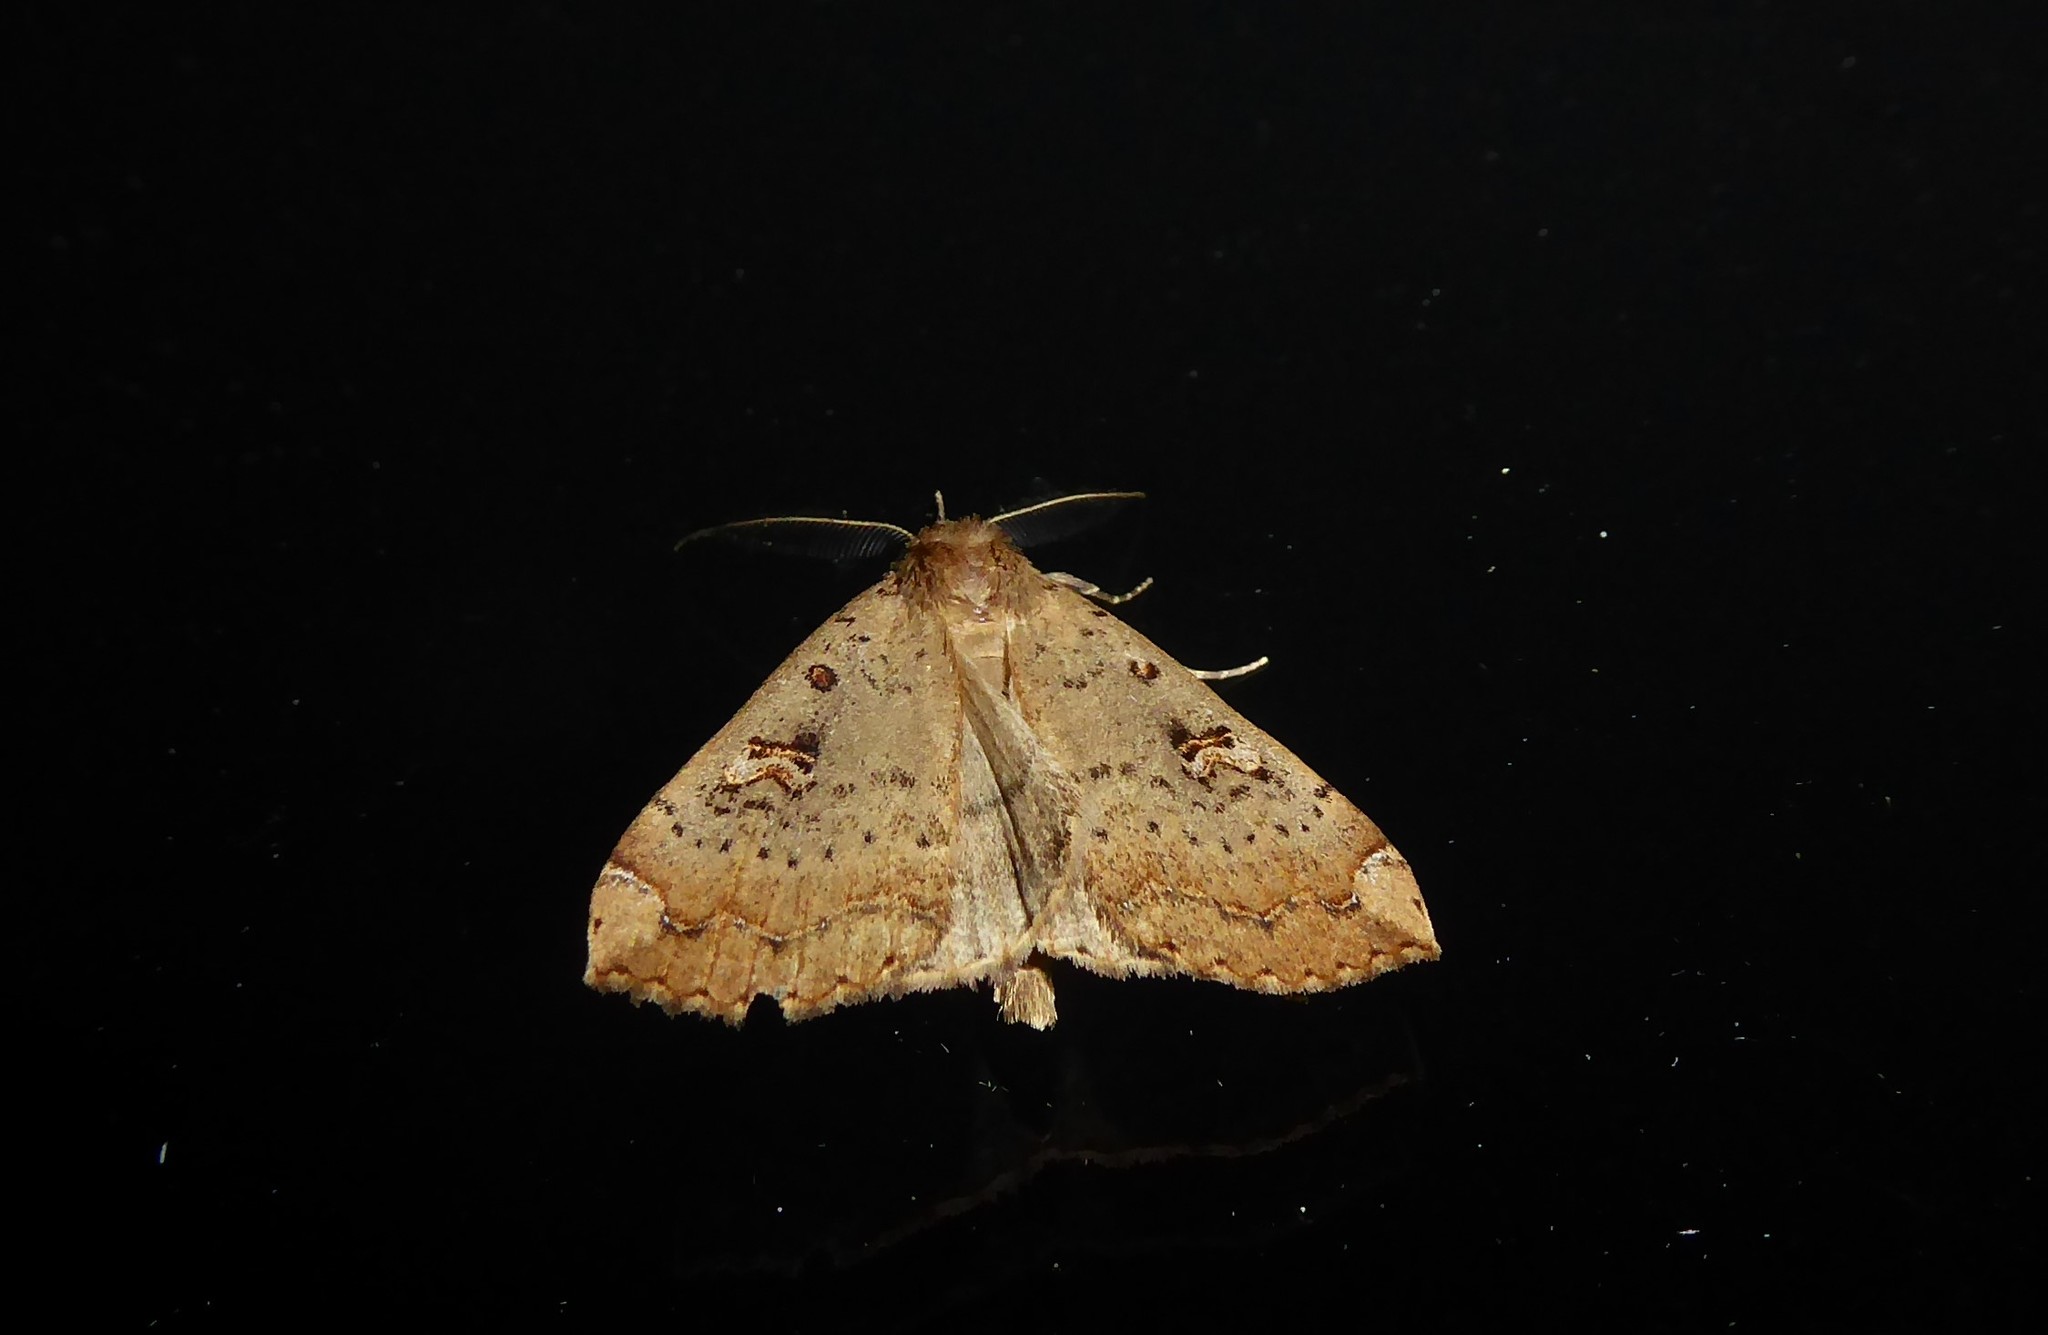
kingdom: Animalia
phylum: Arthropoda
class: Insecta
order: Lepidoptera
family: Erebidae
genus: Rhapsa
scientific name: Rhapsa scotosialis
